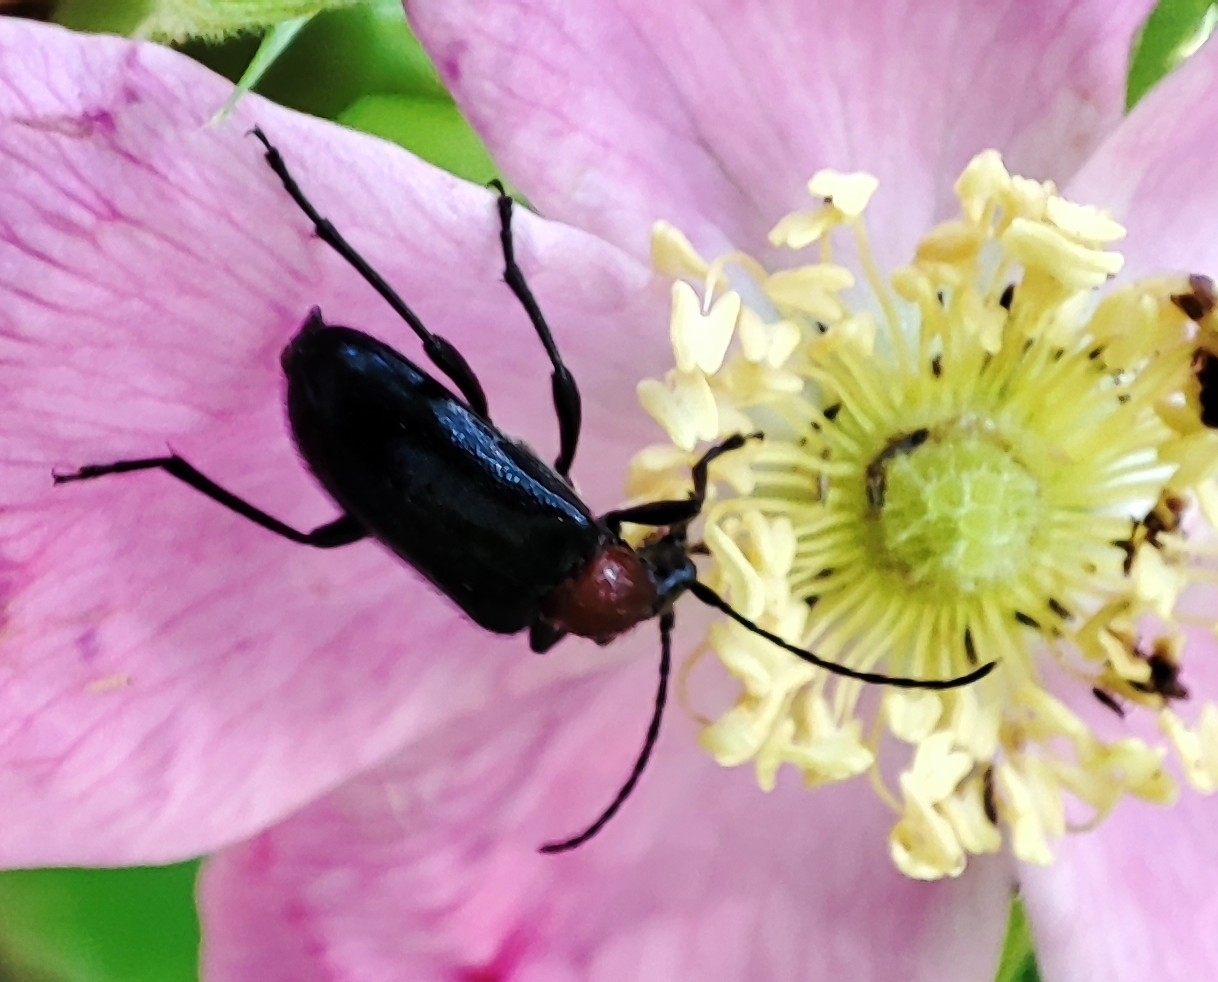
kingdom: Animalia
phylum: Arthropoda
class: Insecta
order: Coleoptera
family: Cerambycidae
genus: Dinoptera
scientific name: Dinoptera collaris
